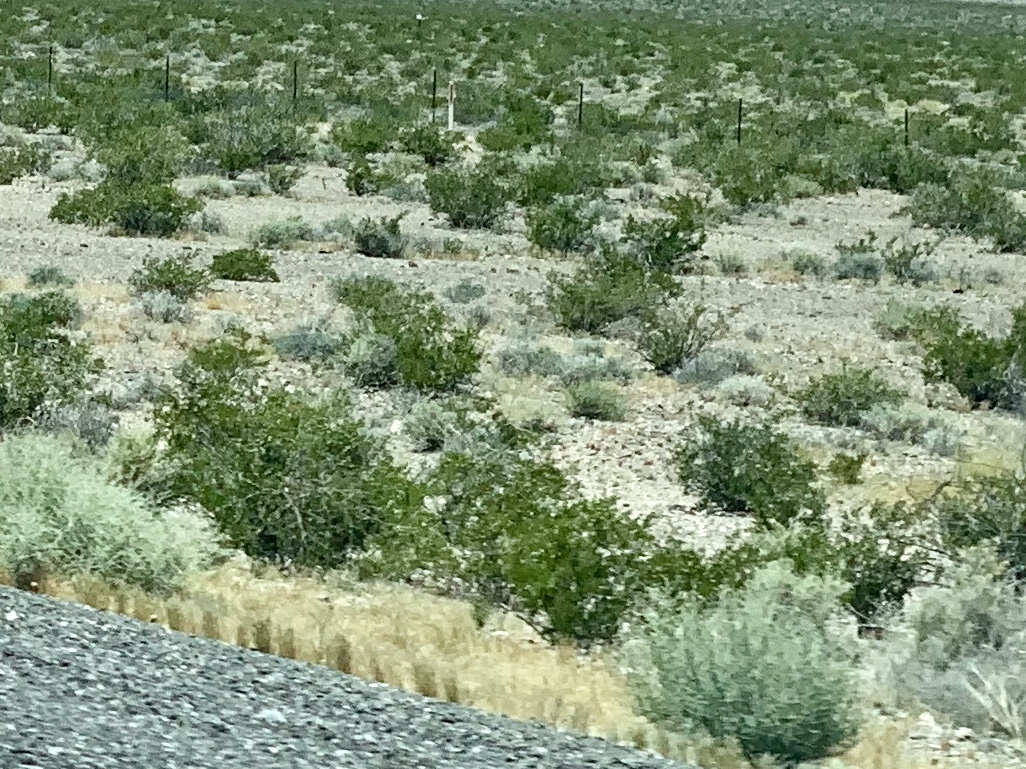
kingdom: Plantae
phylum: Tracheophyta
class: Magnoliopsida
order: Zygophyllales
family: Zygophyllaceae
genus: Larrea
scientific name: Larrea tridentata
